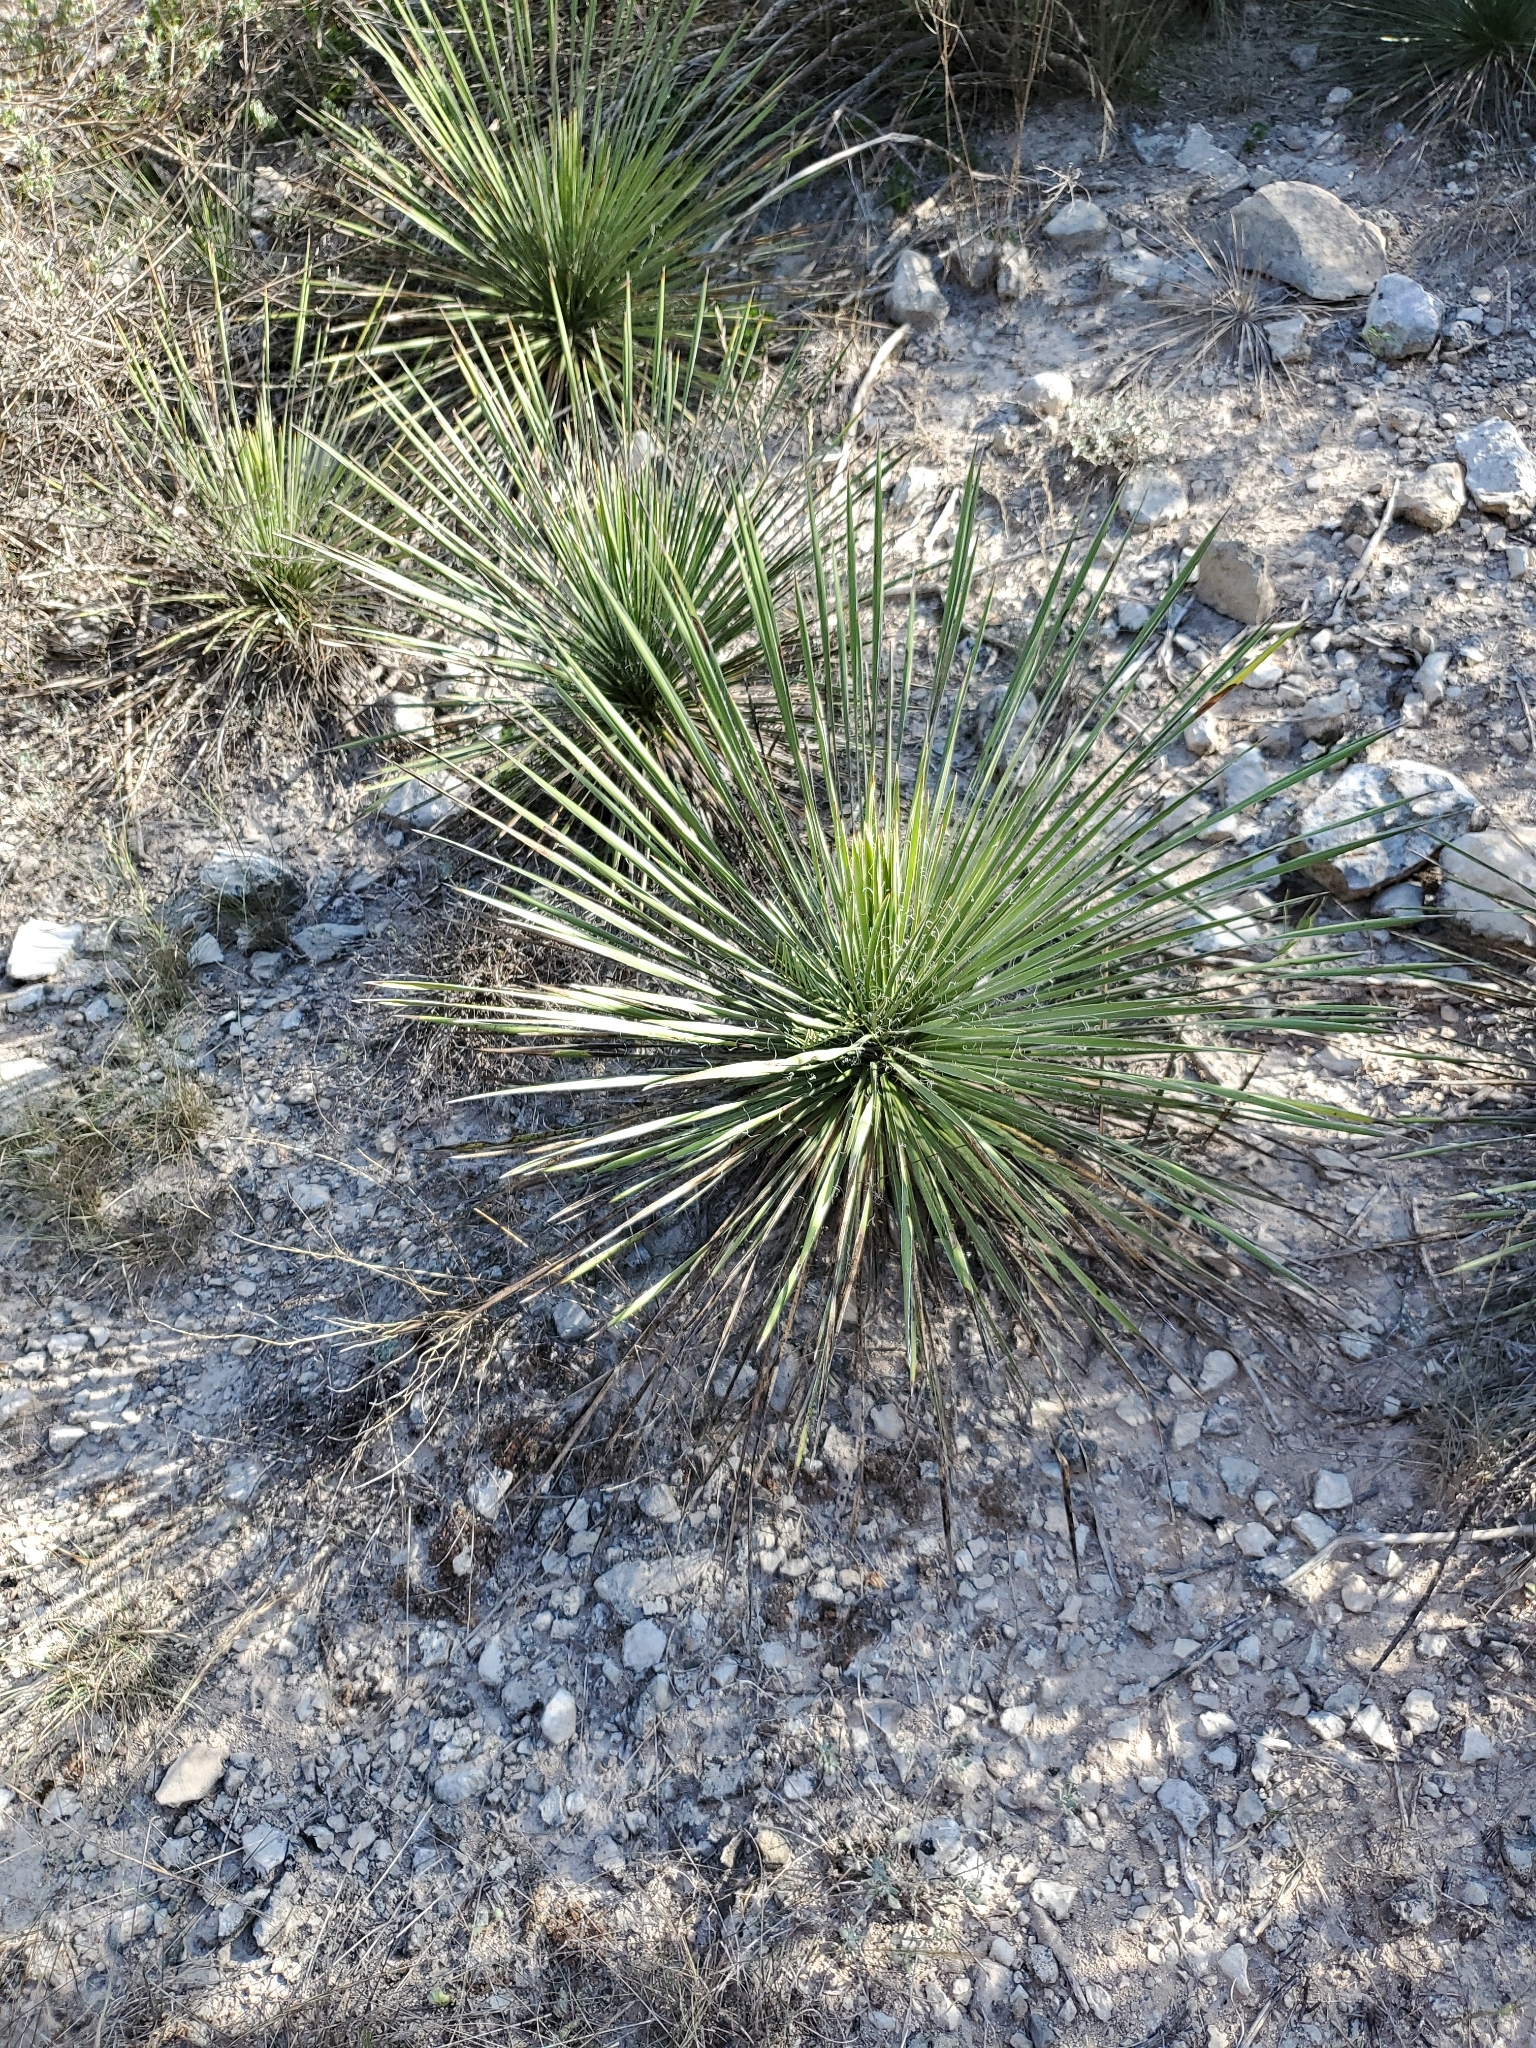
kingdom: Plantae
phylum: Tracheophyta
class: Liliopsida
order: Asparagales
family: Asparagaceae
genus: Yucca
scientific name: Yucca constricta
